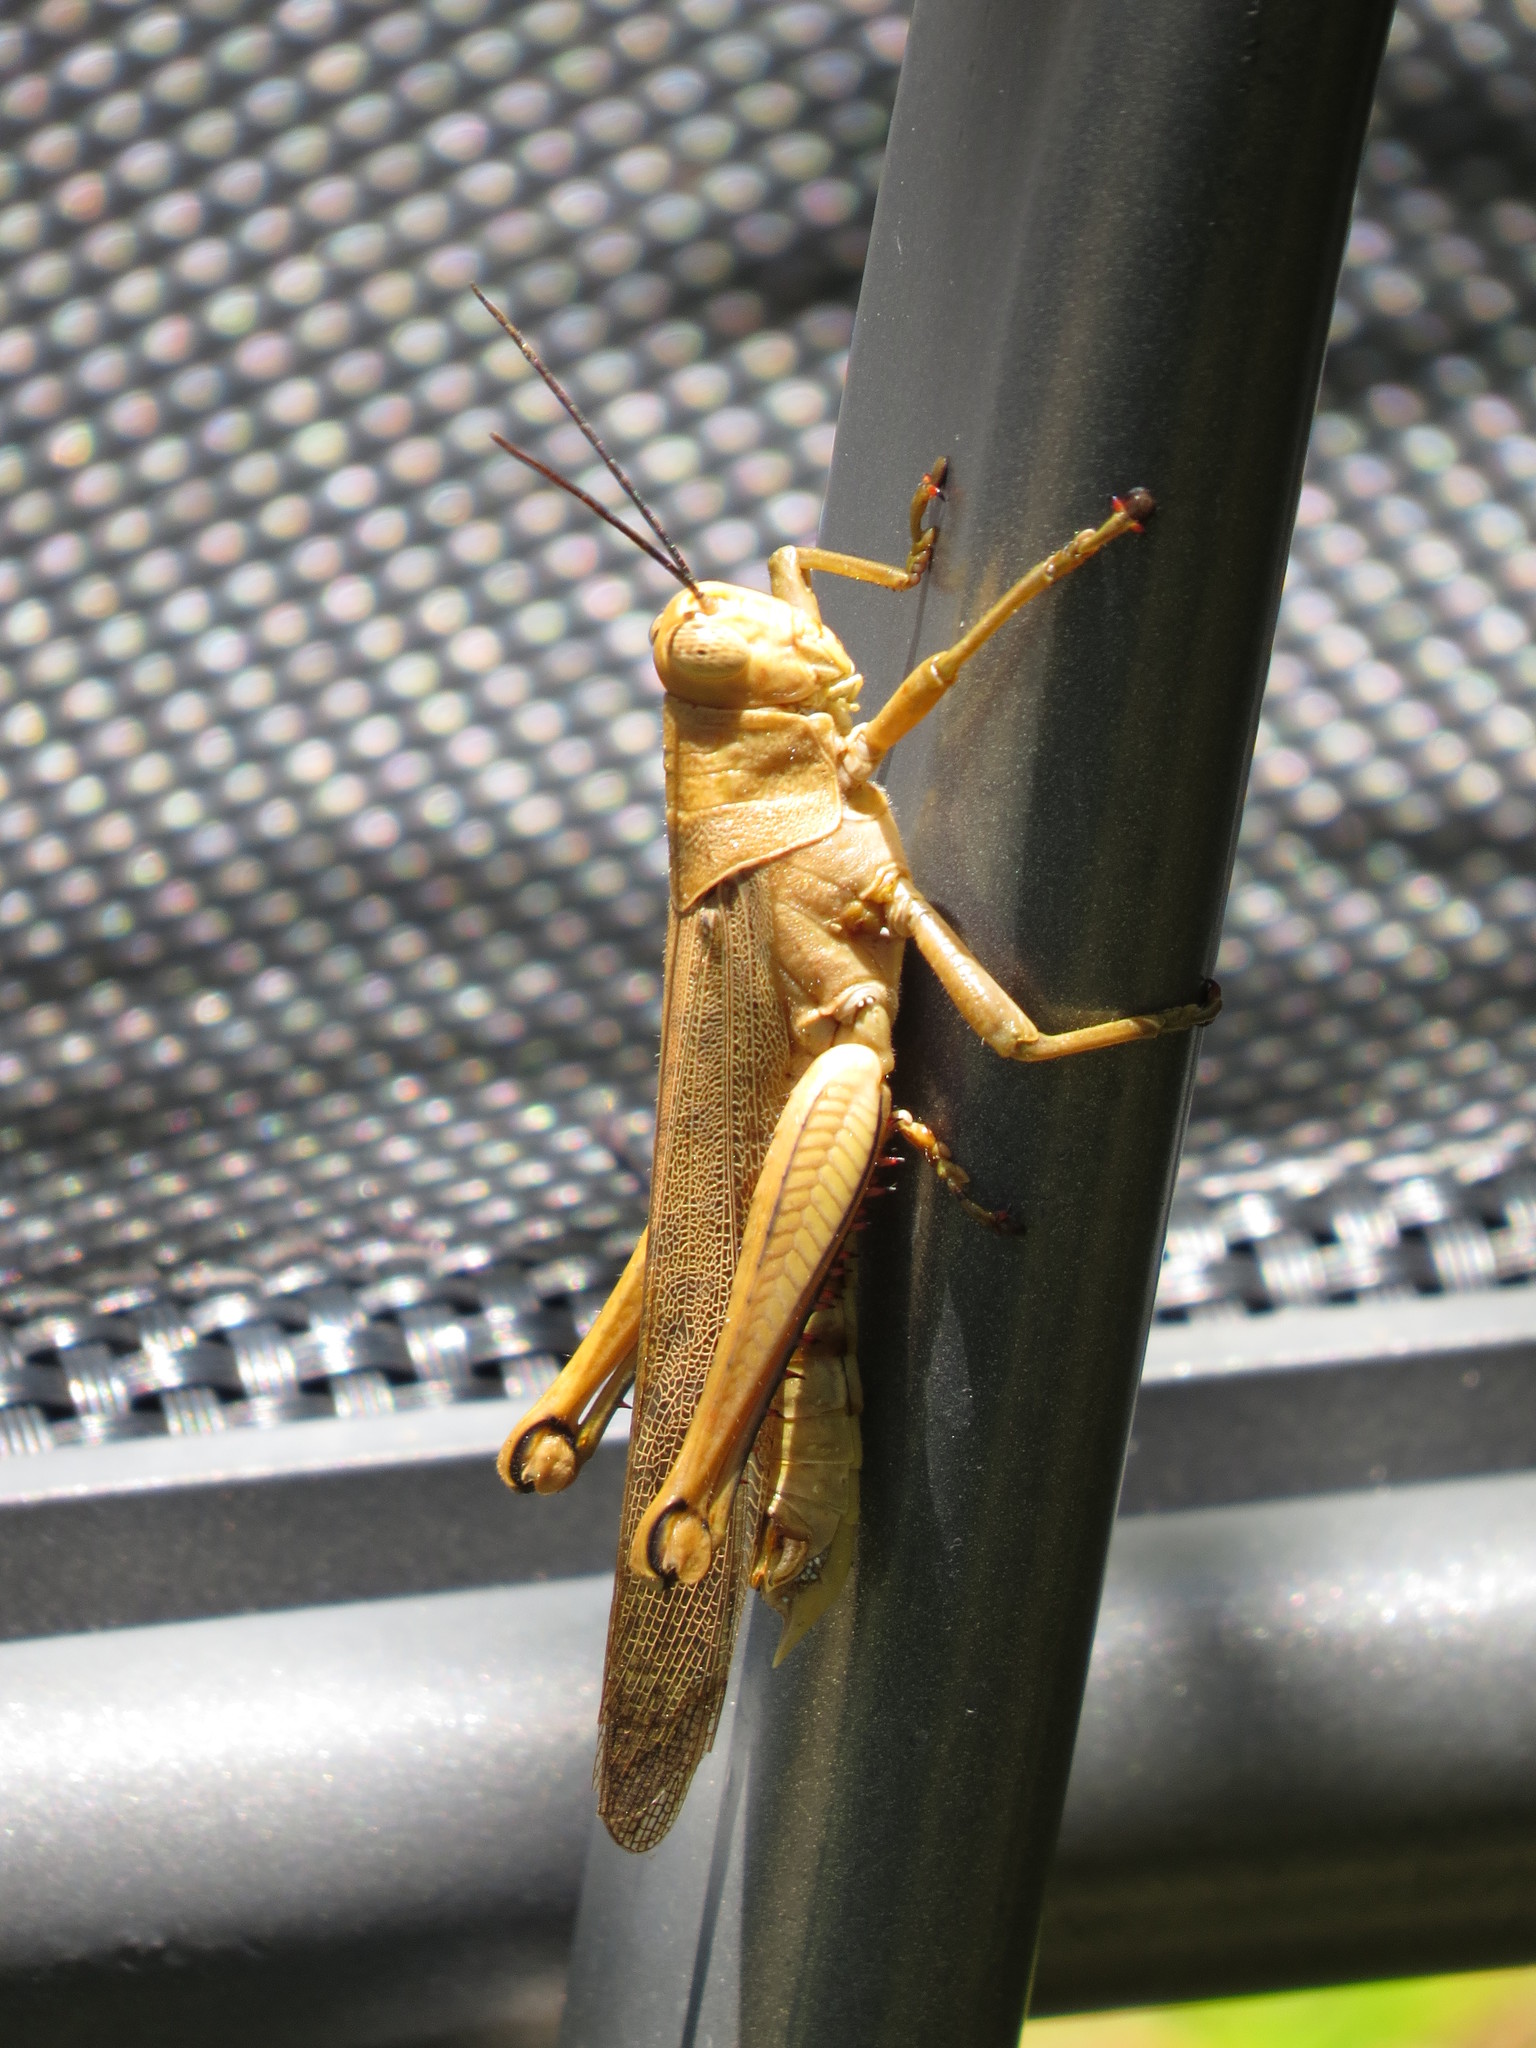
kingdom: Animalia
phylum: Arthropoda
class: Insecta
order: Orthoptera
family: Acrididae
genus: Valanga
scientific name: Valanga irregularis
